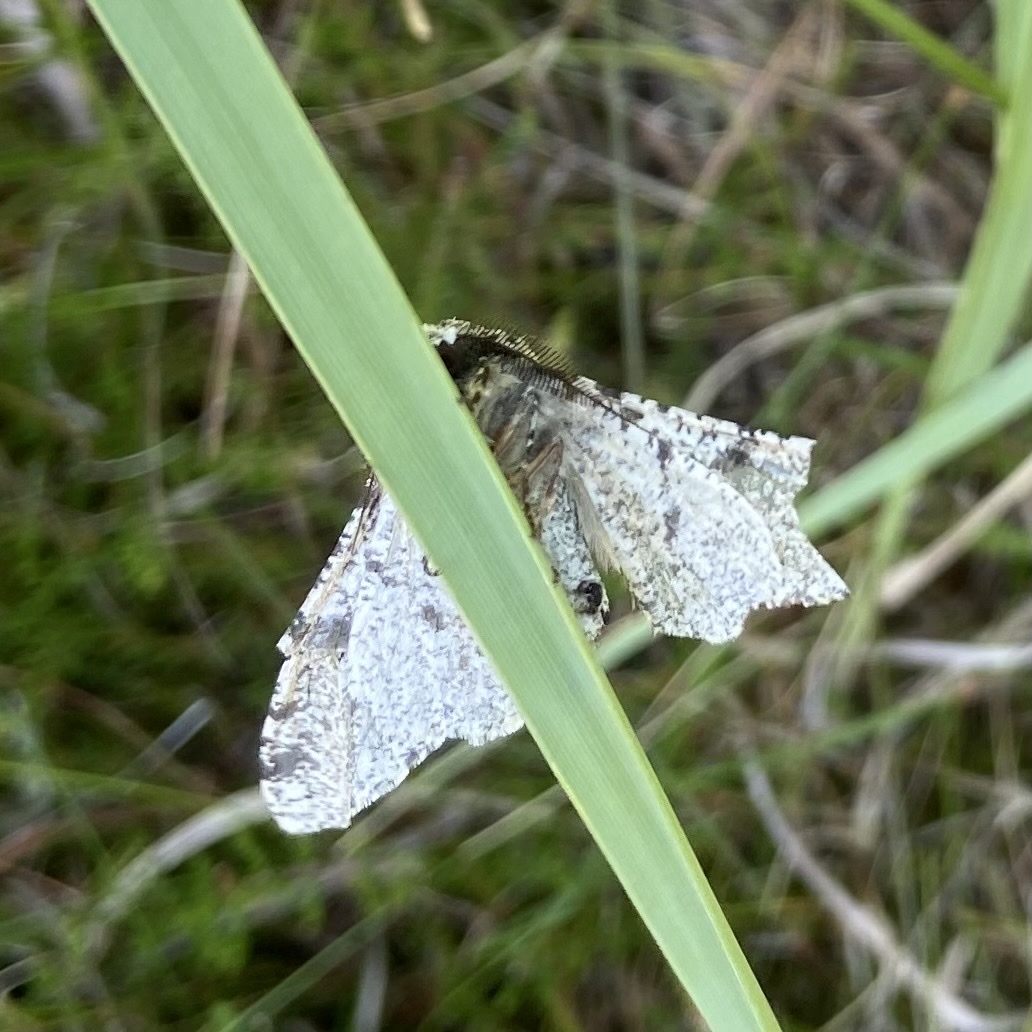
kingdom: Animalia
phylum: Arthropoda
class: Insecta
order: Lepidoptera
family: Geometridae
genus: Biston
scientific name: Biston betularia
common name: Peppered moth
